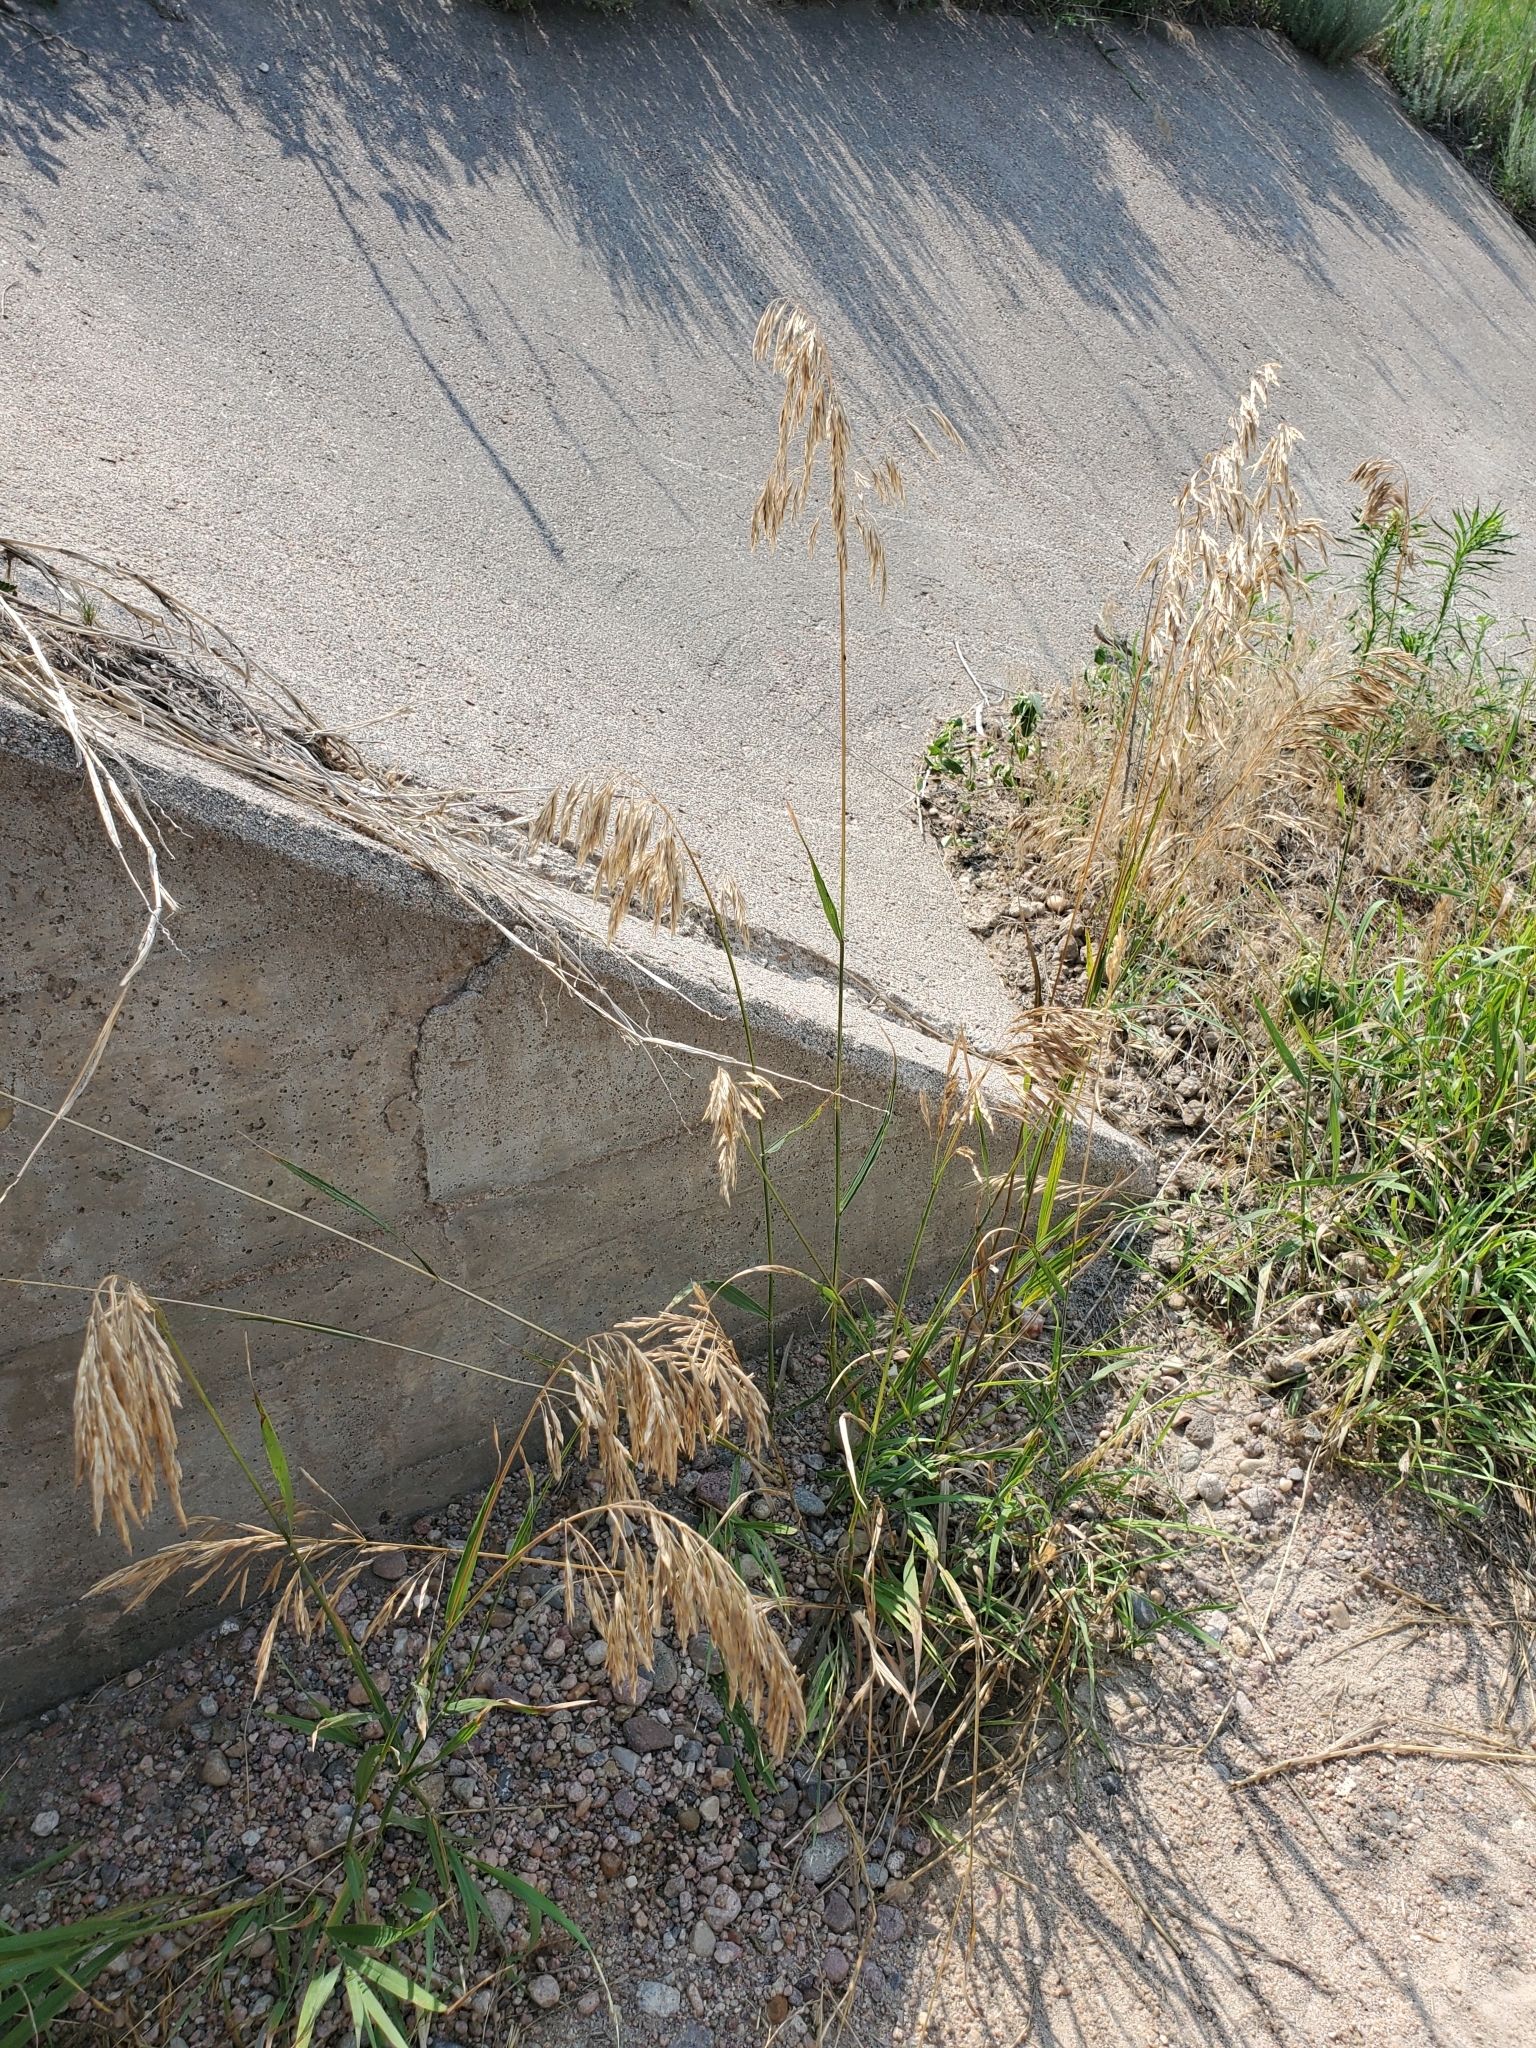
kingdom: Plantae
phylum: Tracheophyta
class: Liliopsida
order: Poales
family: Poaceae
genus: Bromus
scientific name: Bromus inermis
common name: Smooth brome
